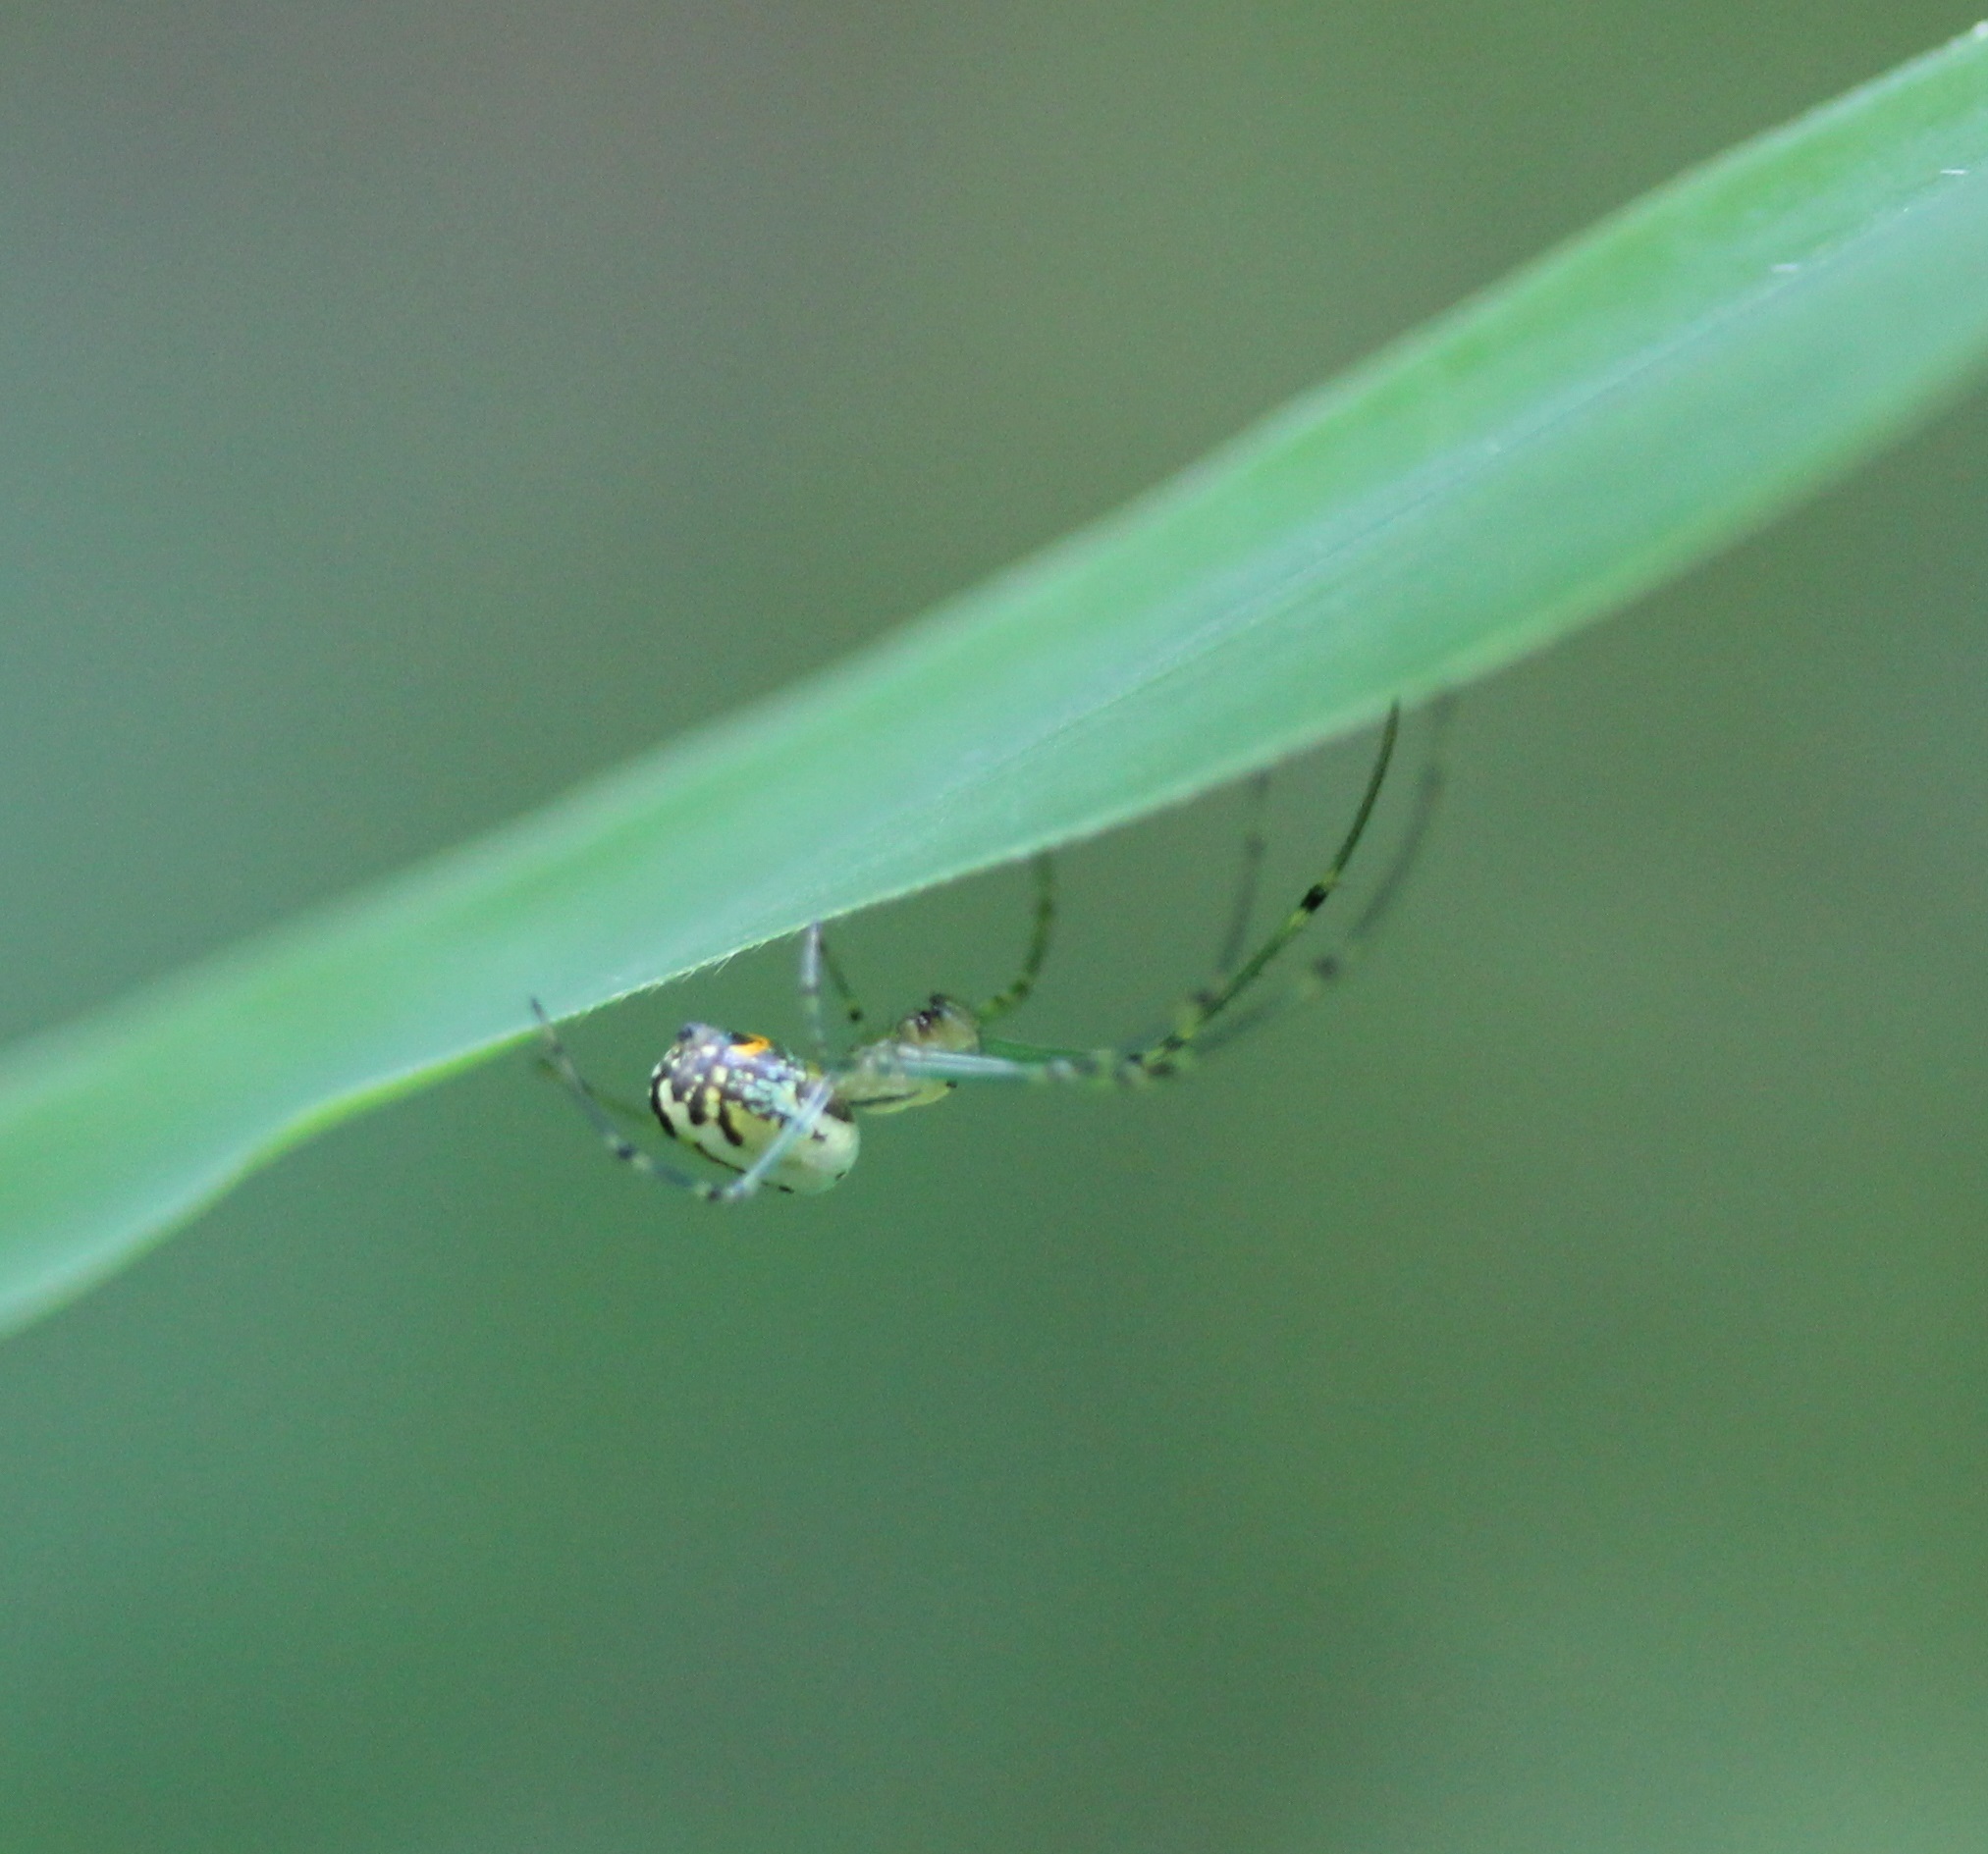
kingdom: Animalia
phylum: Arthropoda
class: Arachnida
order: Araneae
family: Tetragnathidae
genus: Leucauge
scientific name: Leucauge venusta
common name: Longjawed orb weavers
